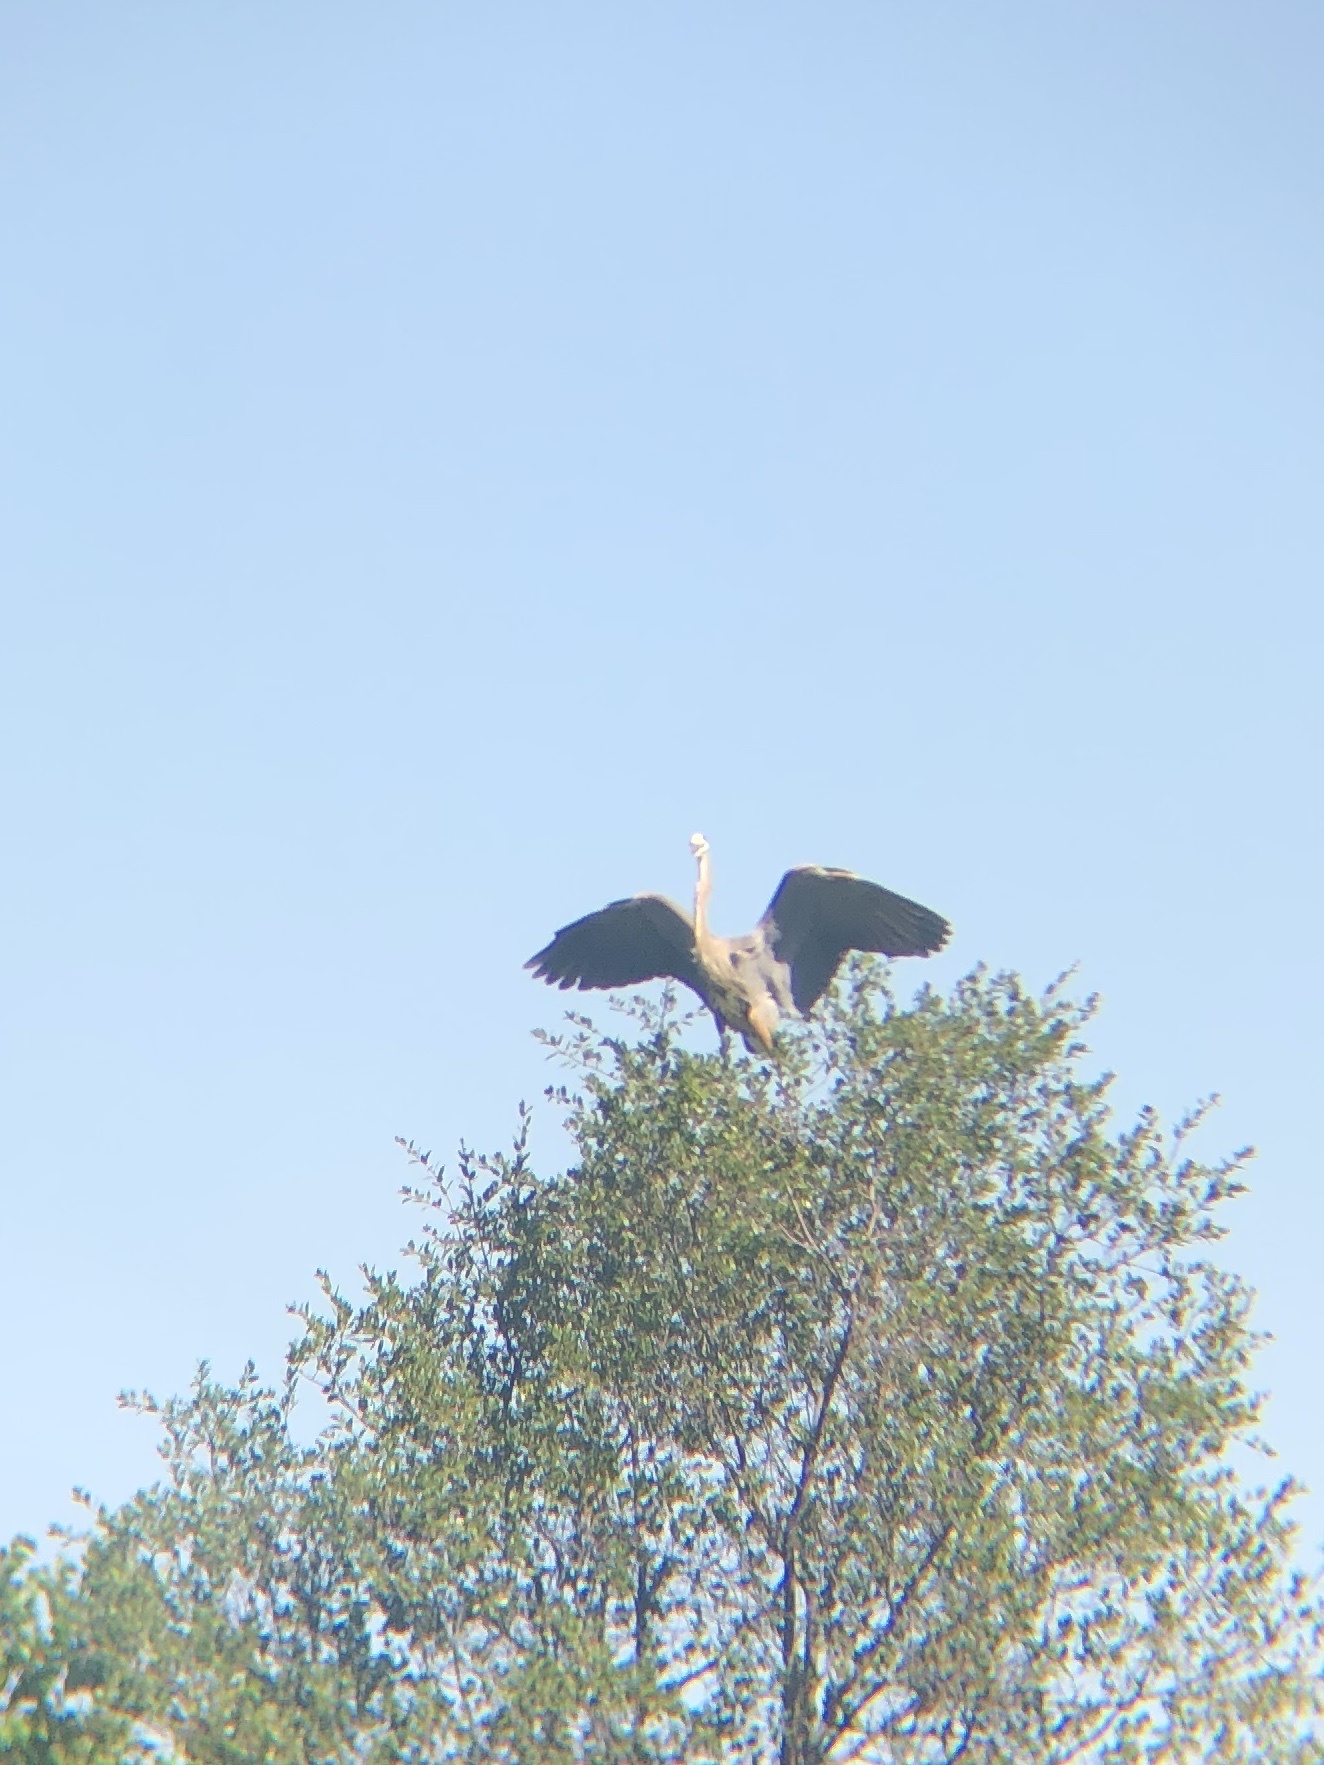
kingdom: Animalia
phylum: Chordata
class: Aves
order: Pelecaniformes
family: Ardeidae
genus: Ardea
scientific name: Ardea herodias
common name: Great blue heron
